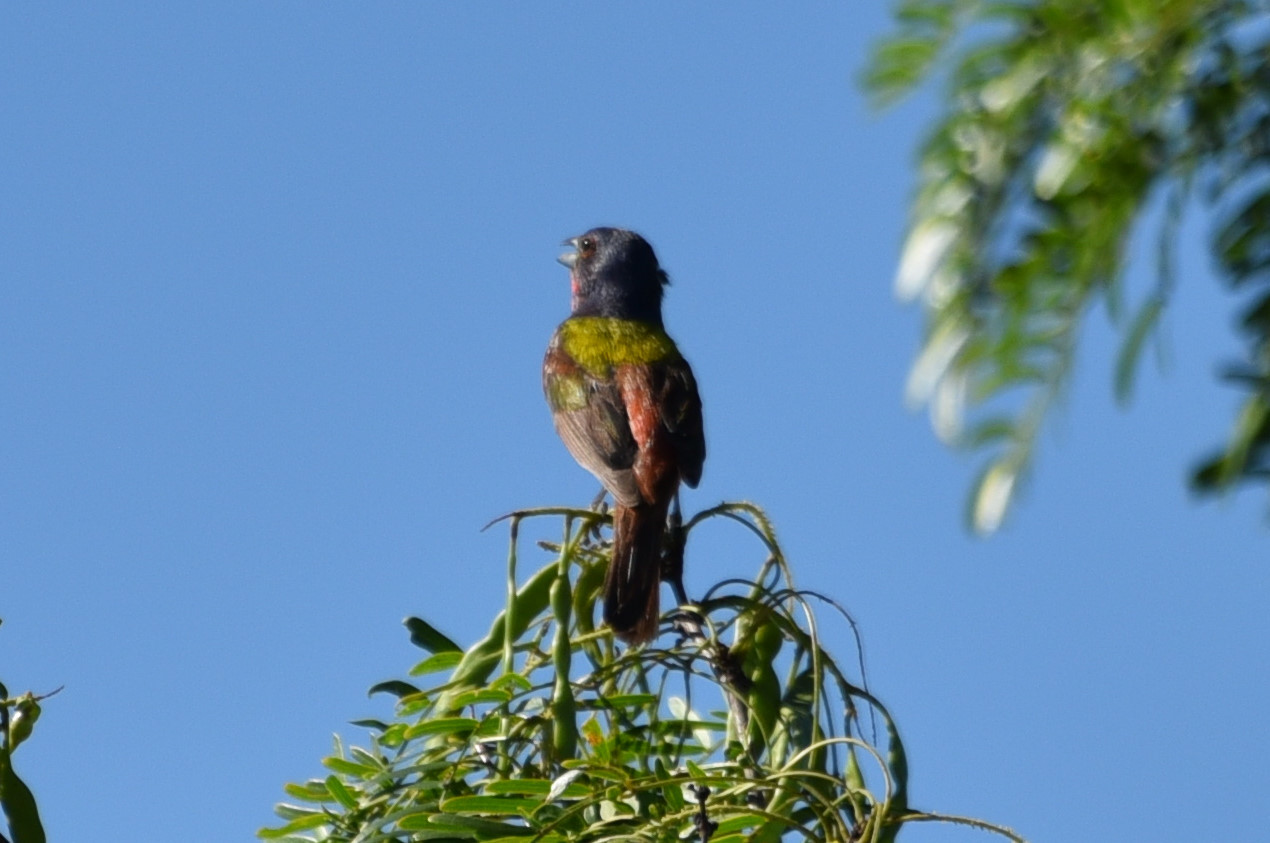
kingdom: Animalia
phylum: Chordata
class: Aves
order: Passeriformes
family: Cardinalidae
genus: Passerina
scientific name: Passerina ciris
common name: Painted bunting
